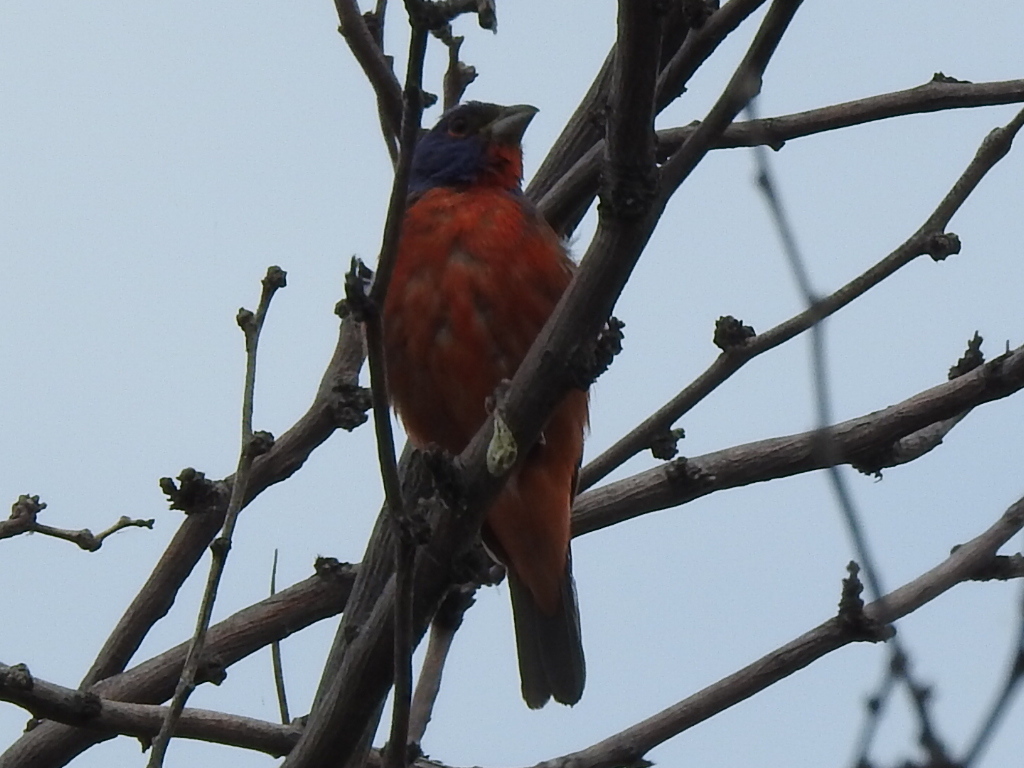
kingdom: Animalia
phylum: Chordata
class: Aves
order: Passeriformes
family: Cardinalidae
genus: Passerina
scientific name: Passerina ciris
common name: Painted bunting
